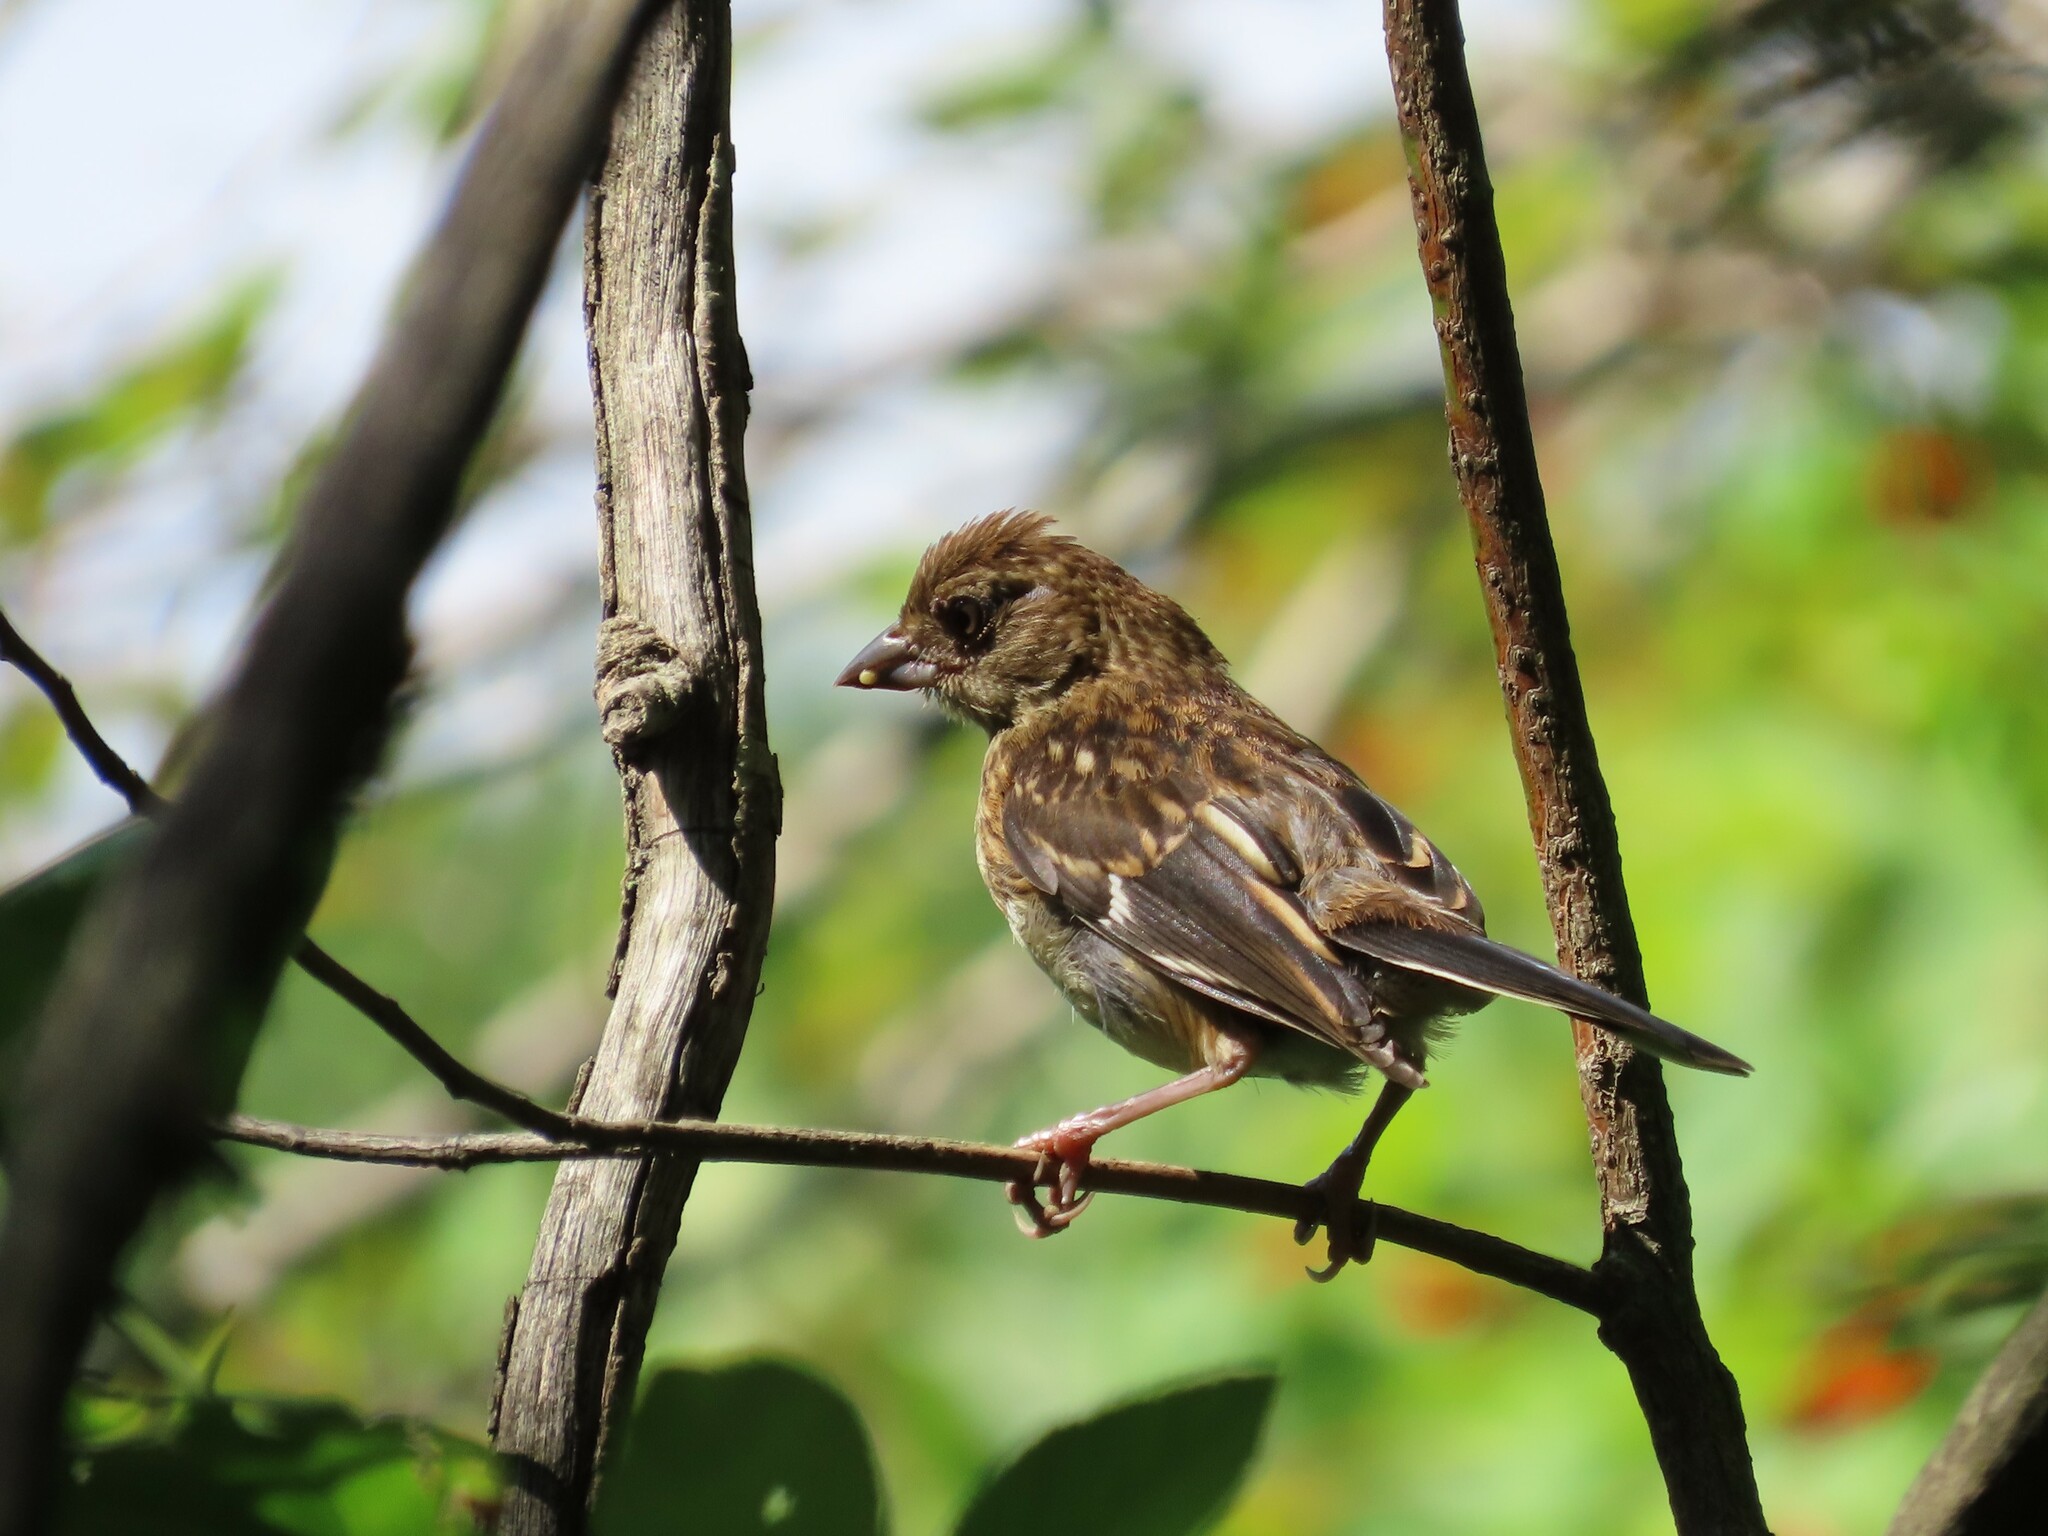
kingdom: Animalia
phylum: Chordata
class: Aves
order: Passeriformes
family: Passerellidae
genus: Pipilo
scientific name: Pipilo erythrophthalmus
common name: Eastern towhee
